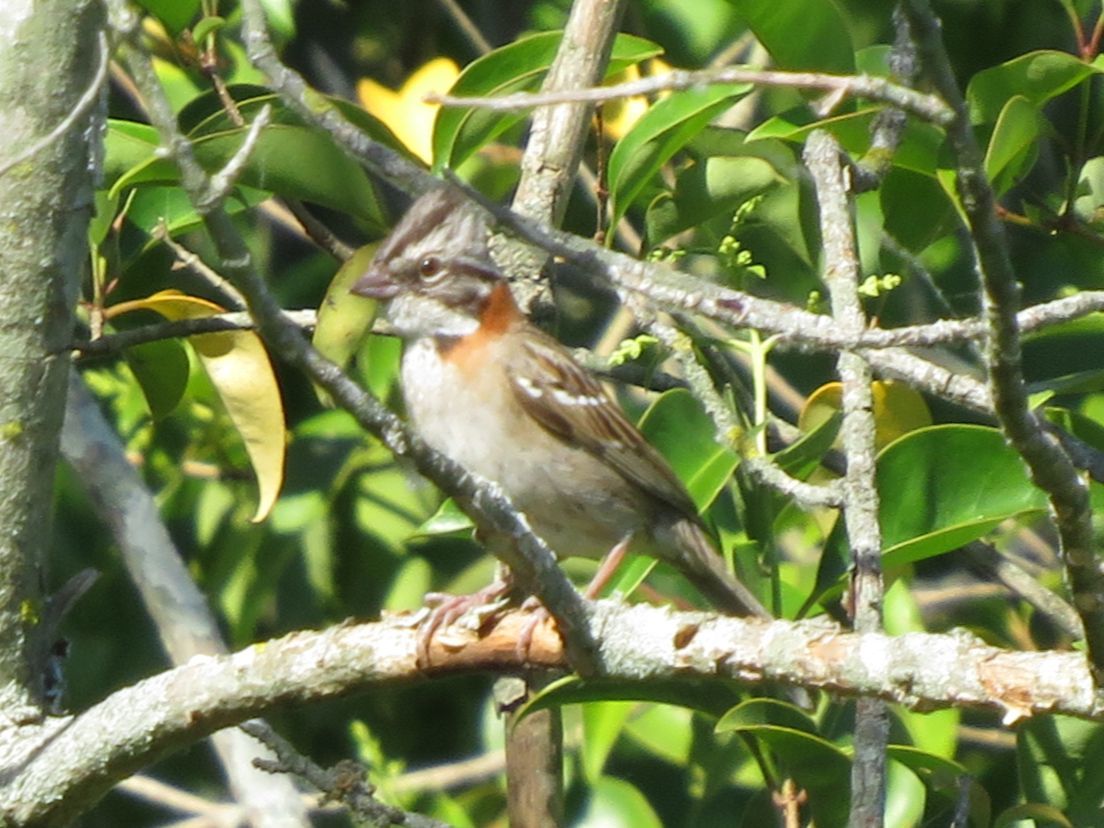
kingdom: Animalia
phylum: Chordata
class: Aves
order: Passeriformes
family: Passerellidae
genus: Zonotrichia
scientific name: Zonotrichia capensis
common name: Rufous-collared sparrow
